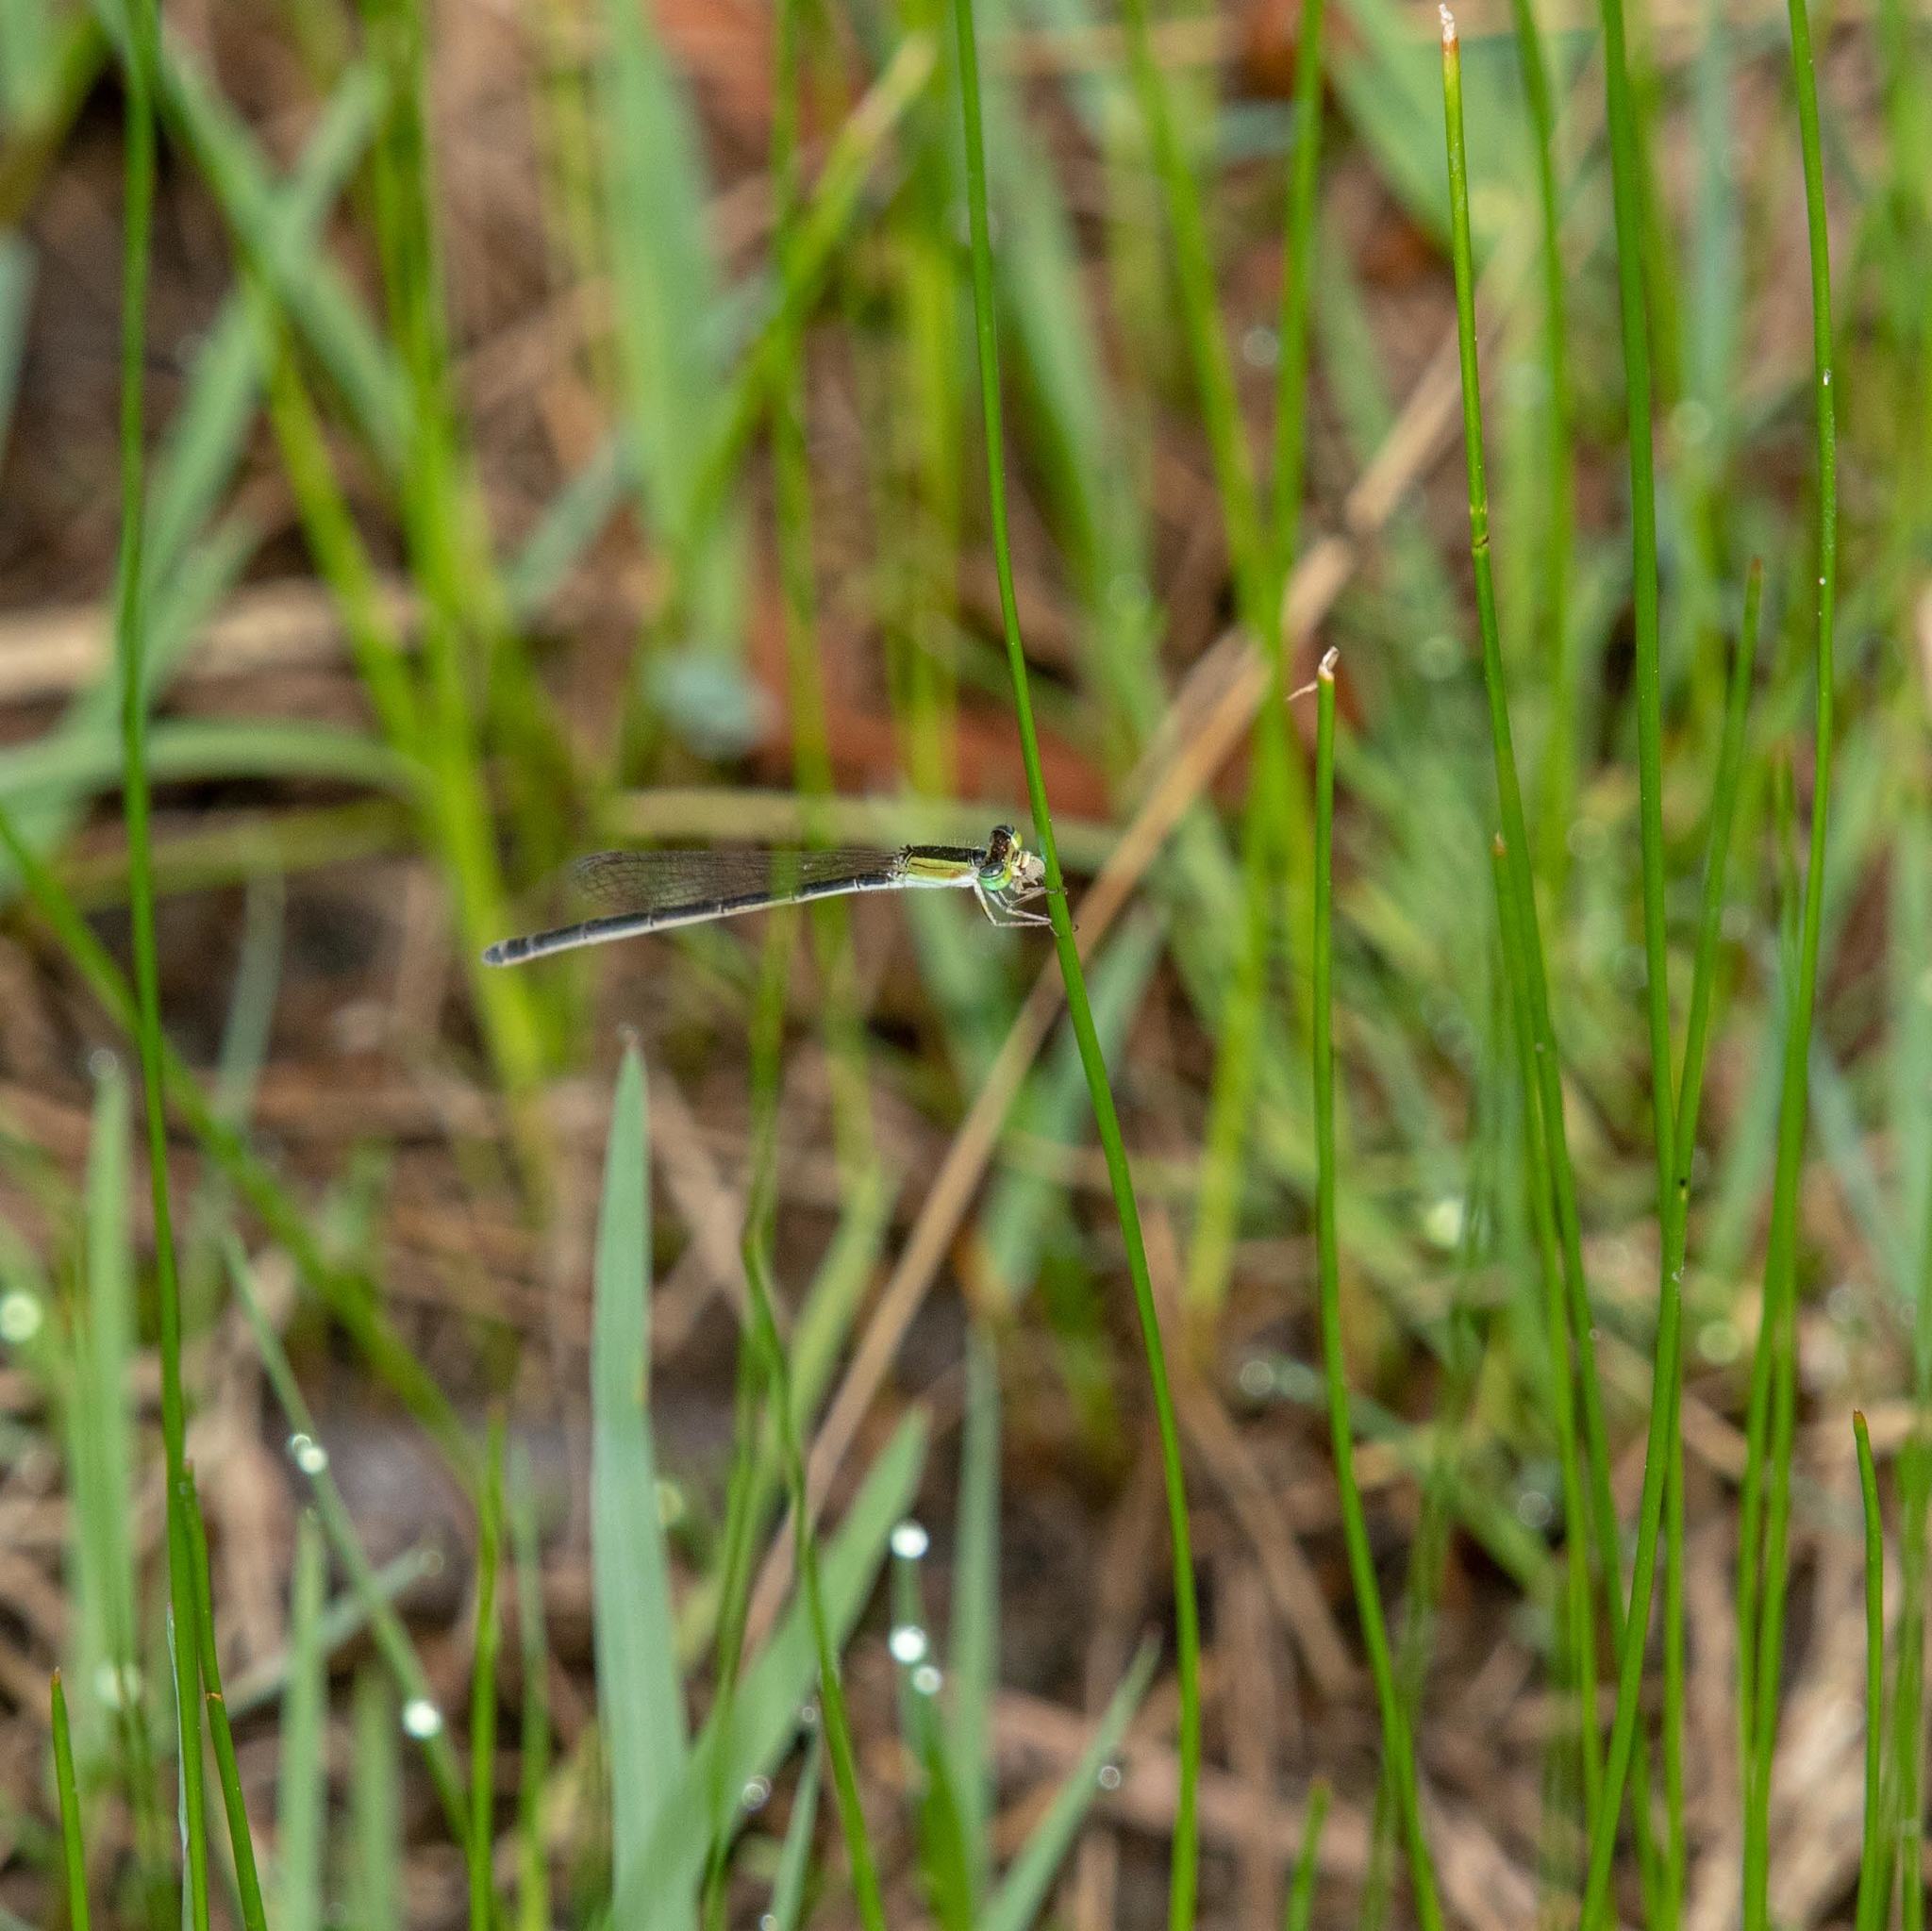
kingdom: Animalia
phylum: Arthropoda
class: Insecta
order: Odonata
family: Coenagrionidae
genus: Ischnura
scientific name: Ischnura ramburii
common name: Rambur's forktail
